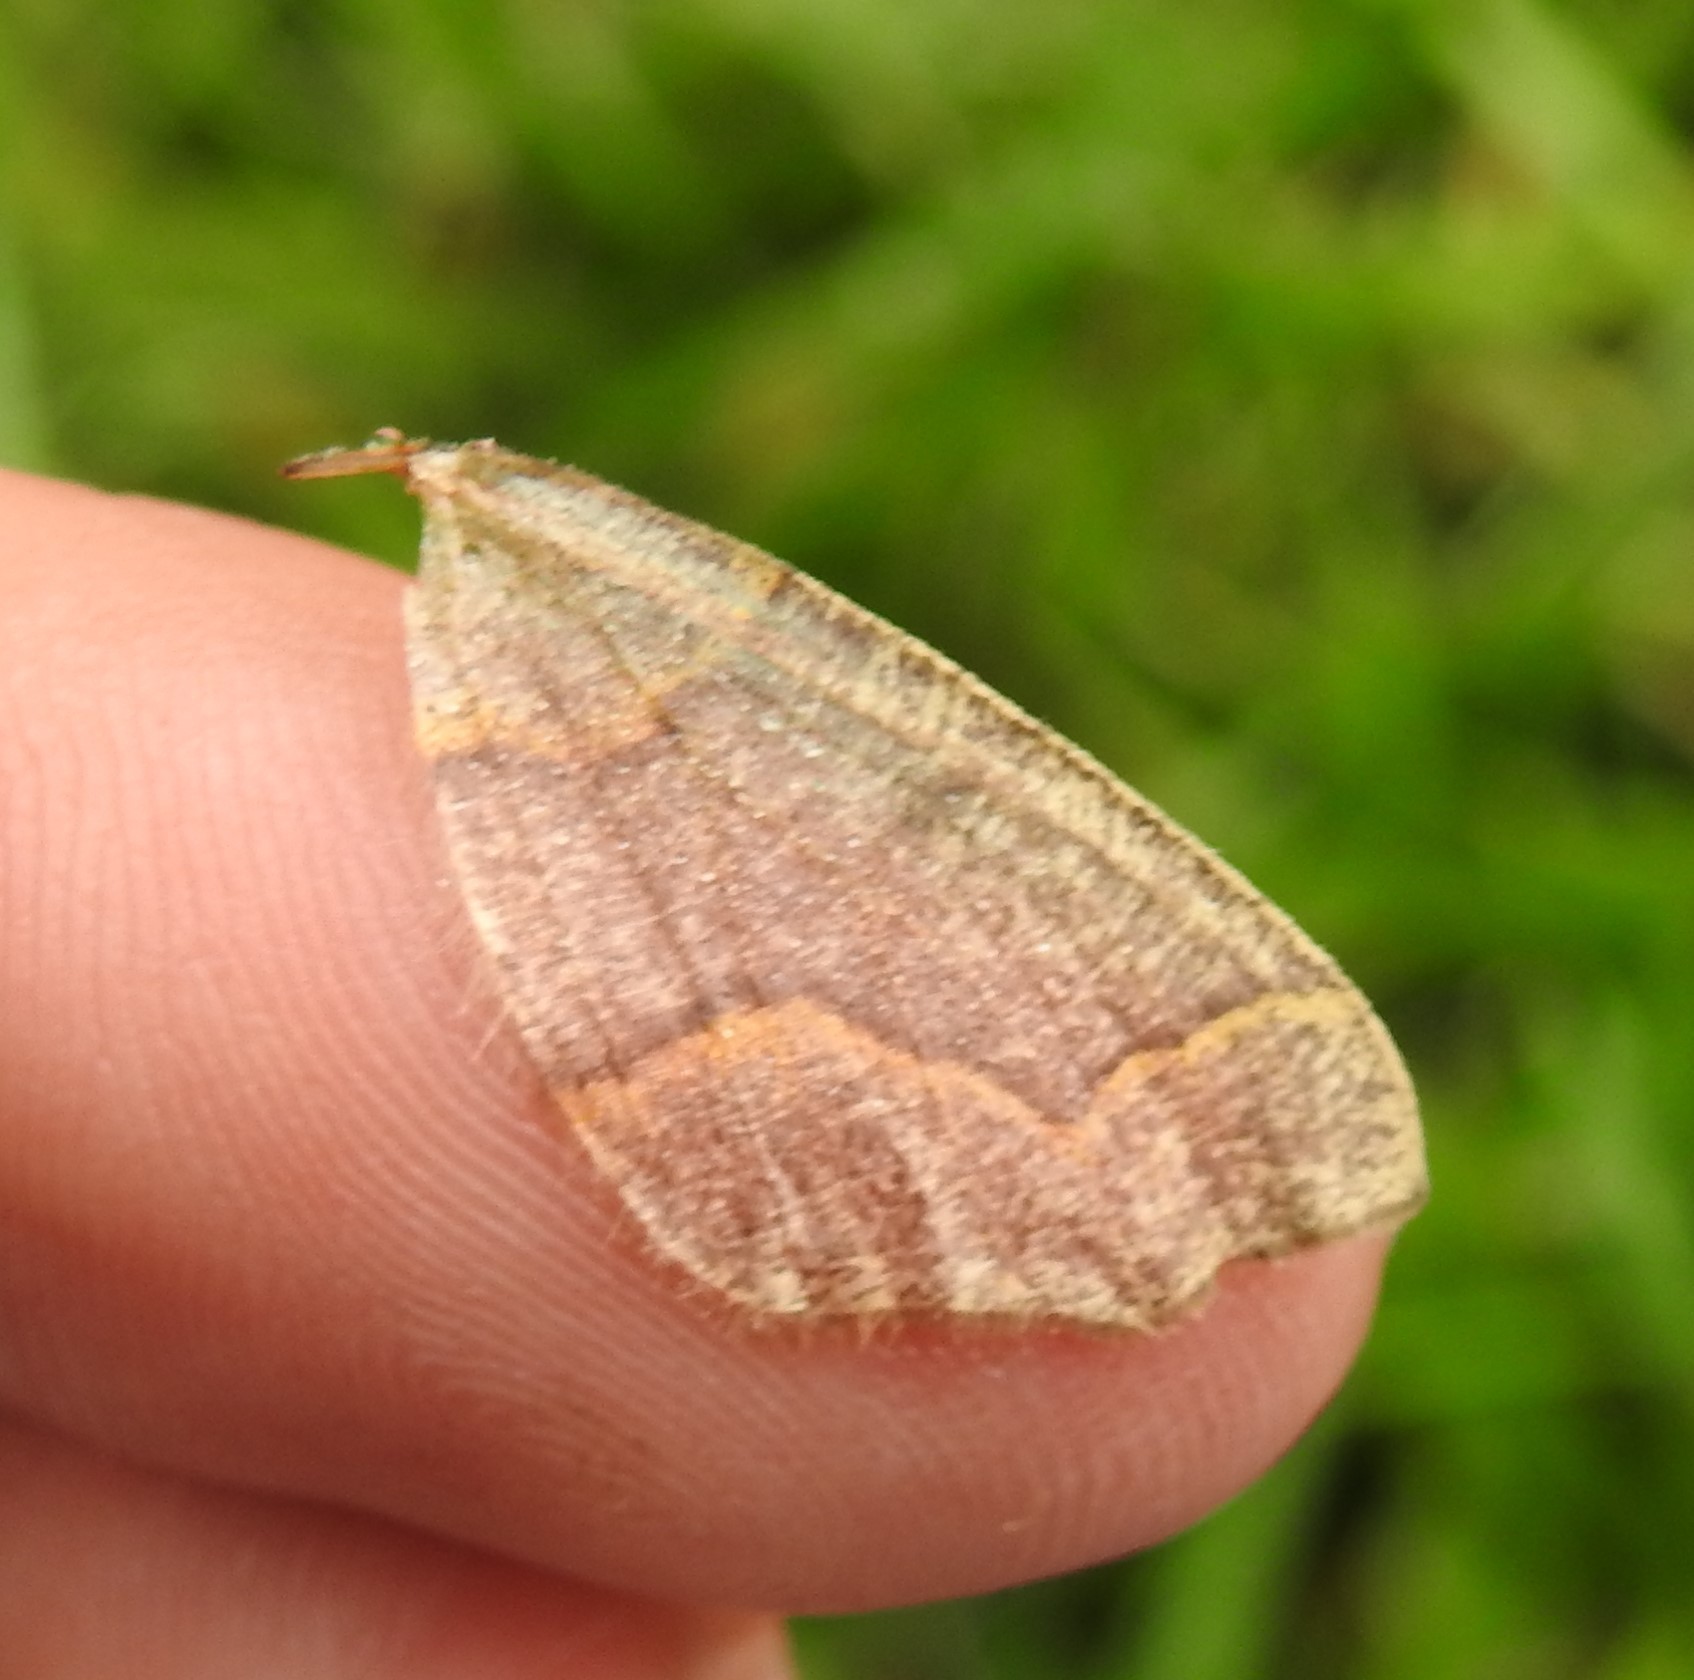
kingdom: Animalia
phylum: Arthropoda
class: Insecta
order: Lepidoptera
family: Geometridae
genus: Lambdina
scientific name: Lambdina fiscellaria
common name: Hemlock looper
